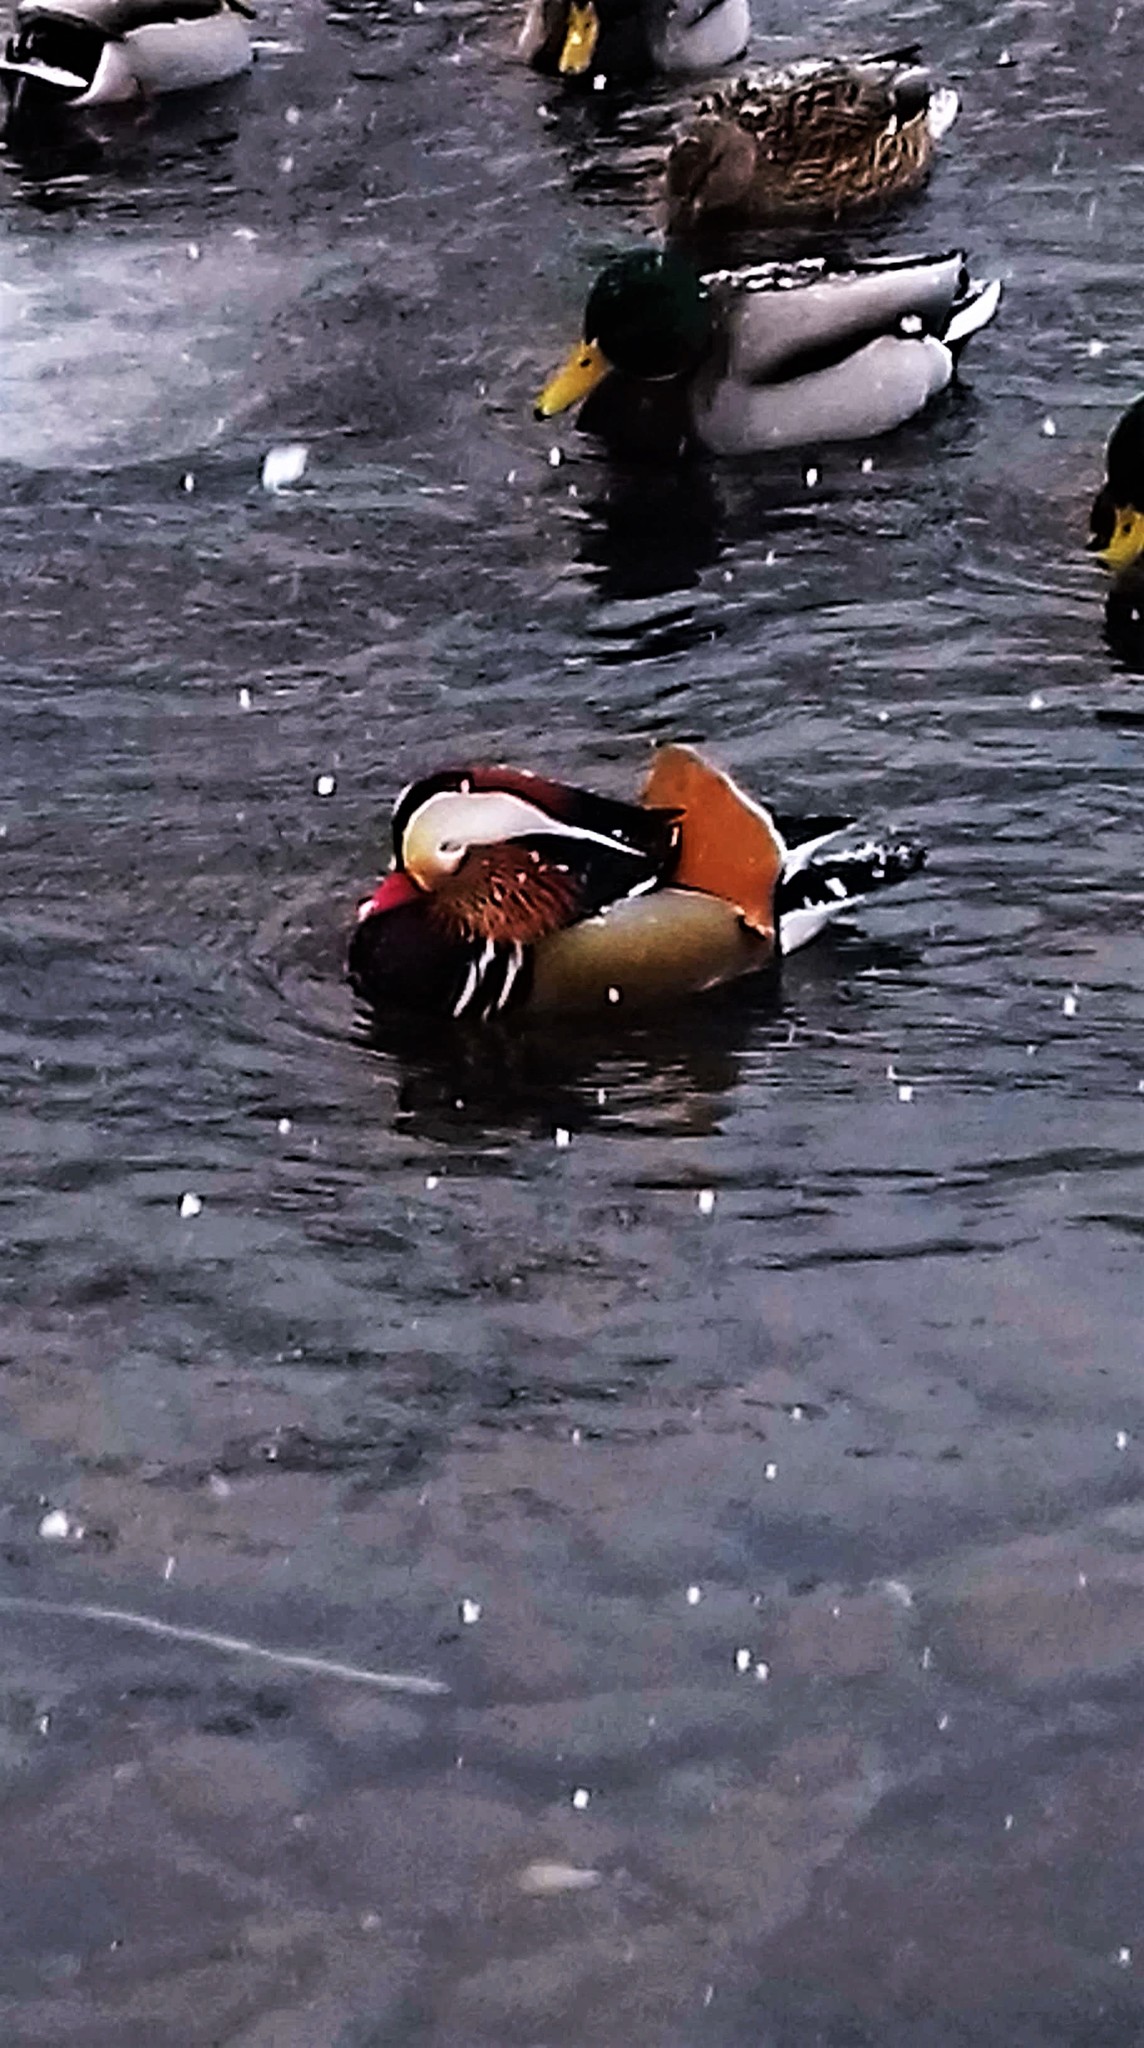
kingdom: Animalia
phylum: Chordata
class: Aves
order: Anseriformes
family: Anatidae
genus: Aix
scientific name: Aix galericulata
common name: Mandarin duck
